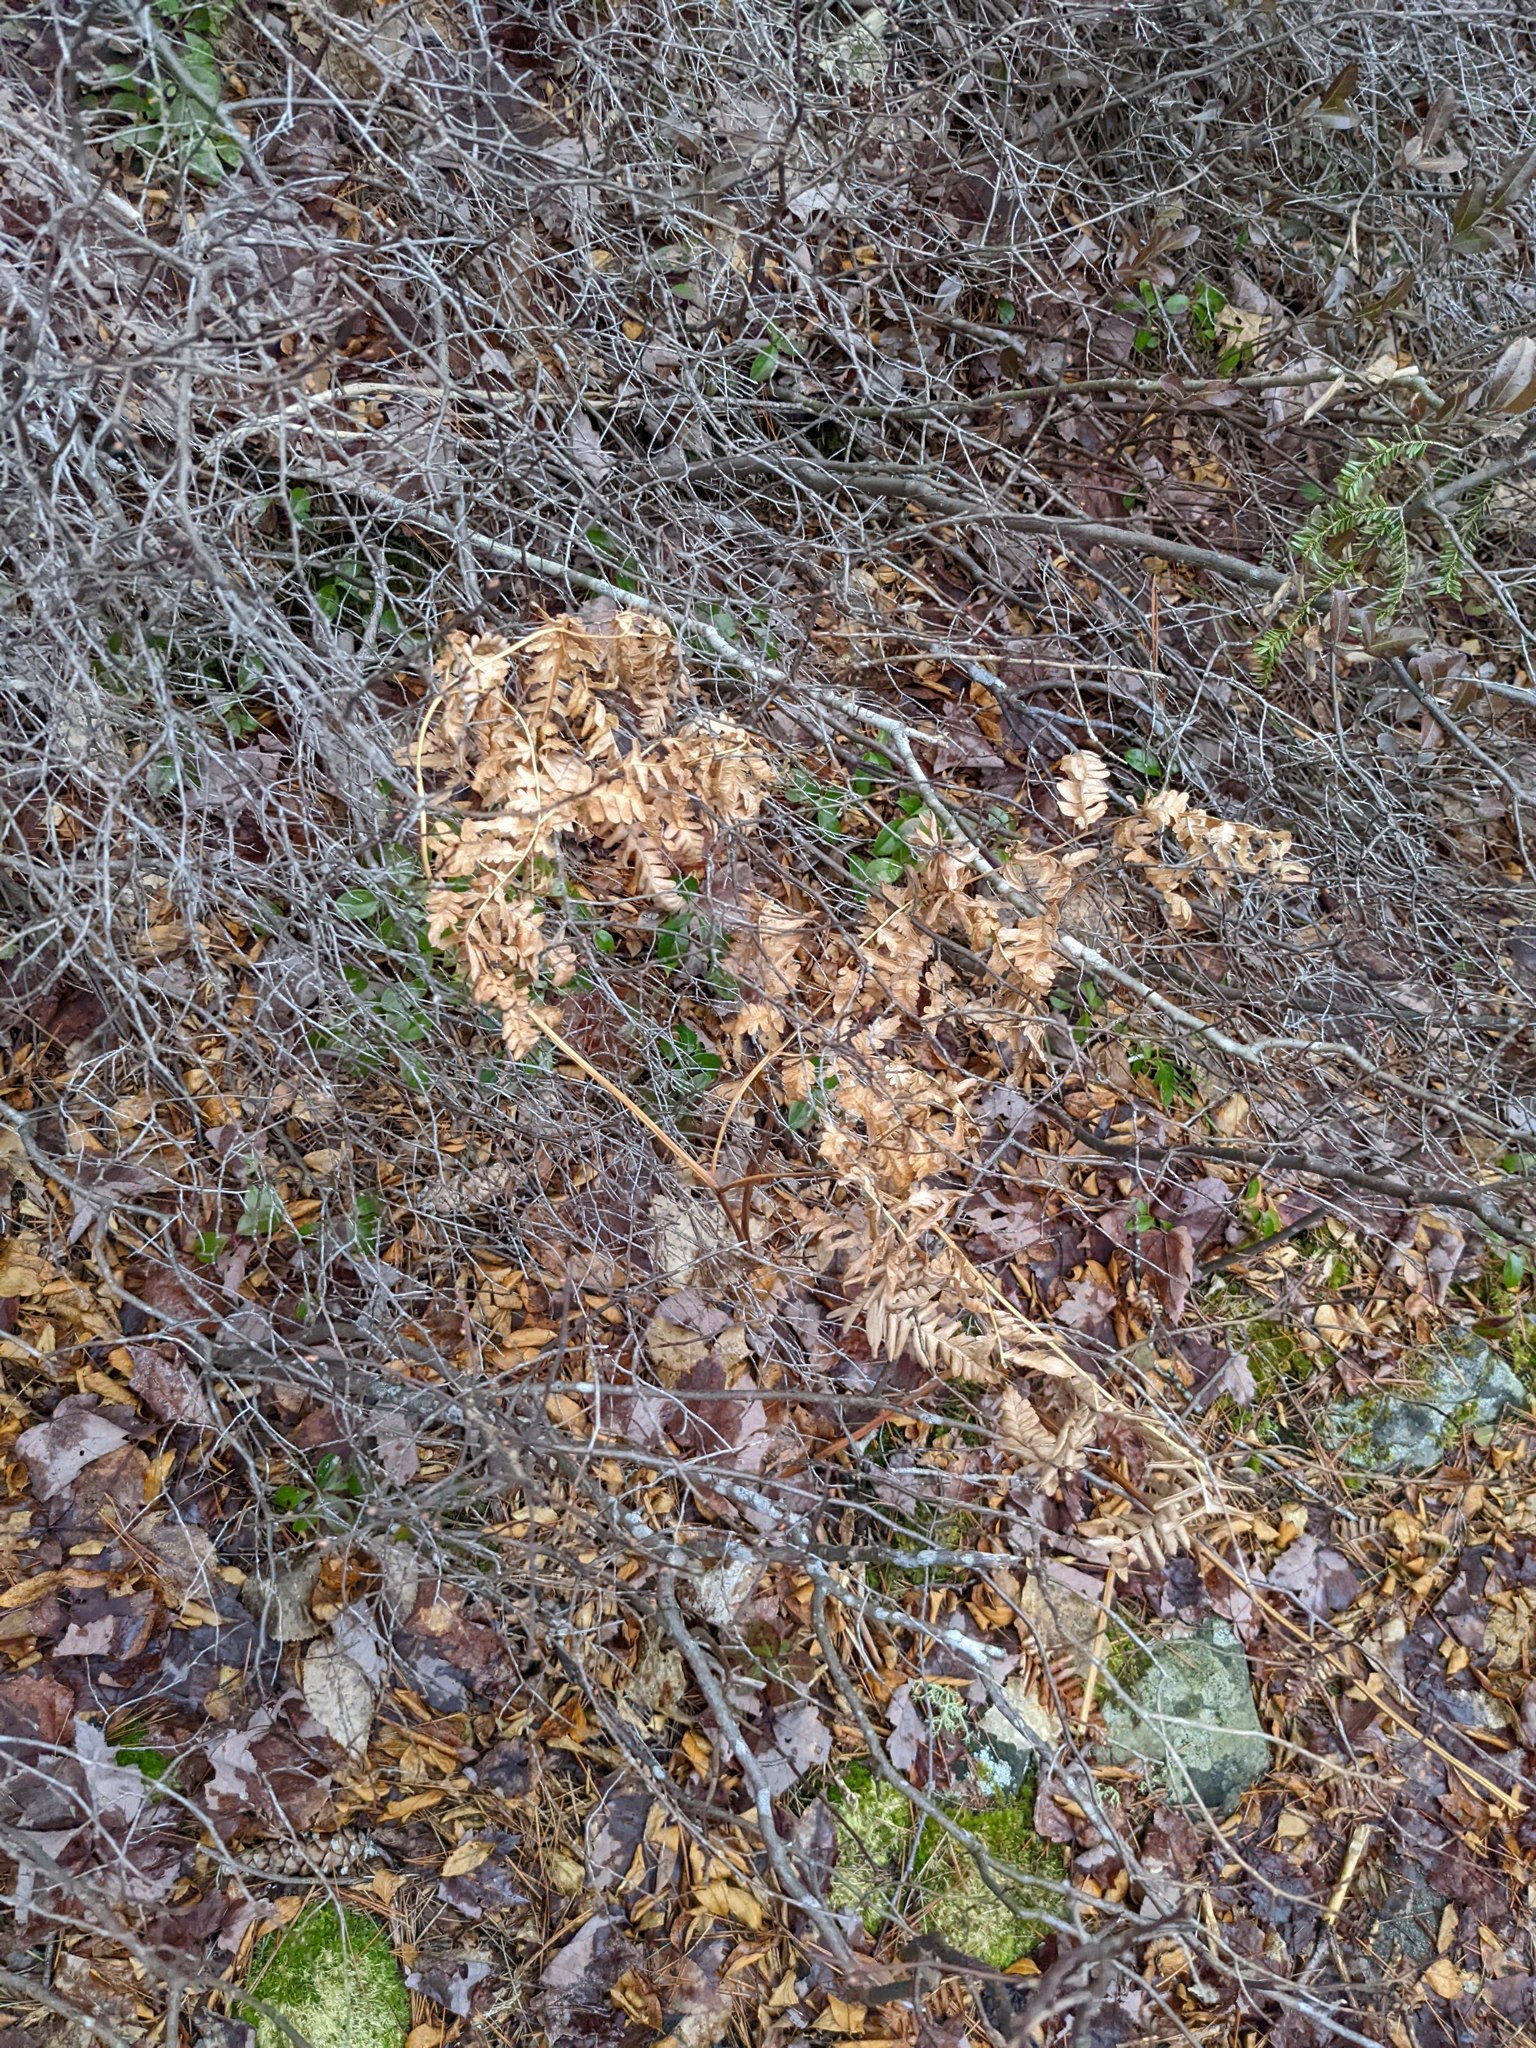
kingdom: Plantae
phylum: Tracheophyta
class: Polypodiopsida
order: Polypodiales
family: Dennstaedtiaceae
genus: Pteridium
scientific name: Pteridium aquilinum
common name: Bracken
